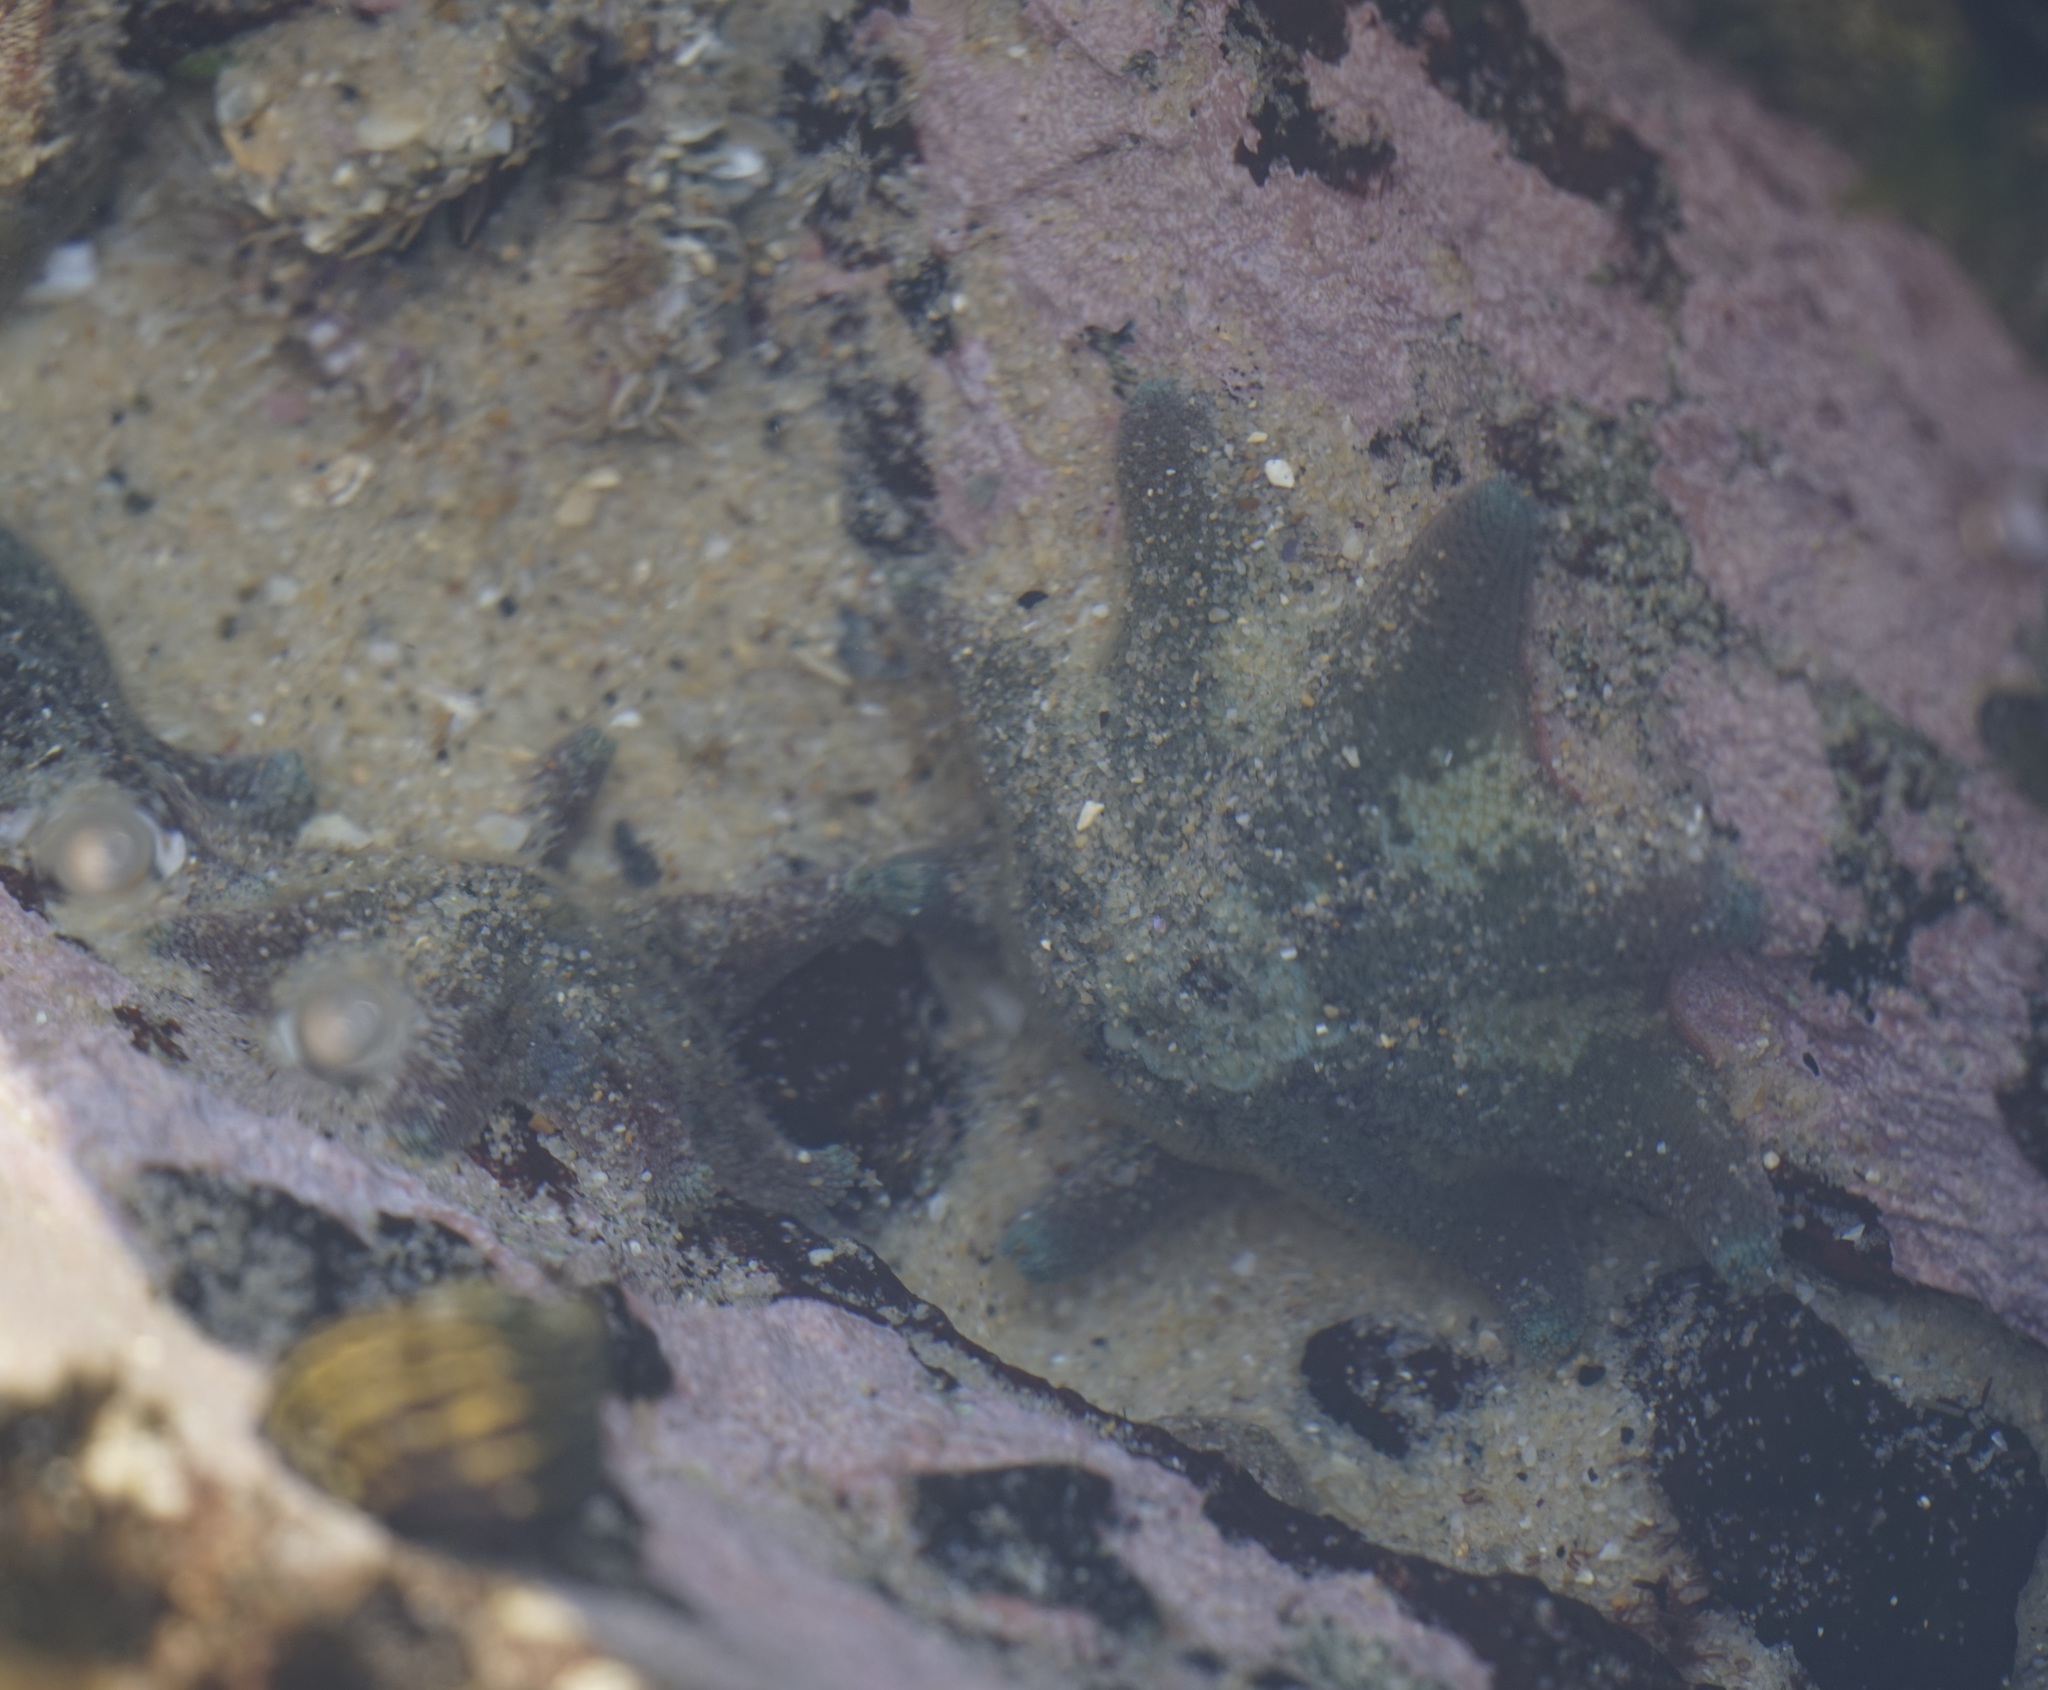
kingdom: Animalia
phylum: Echinodermata
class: Asteroidea
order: Valvatida
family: Asterinidae
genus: Meridiastra
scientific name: Meridiastra calcar
